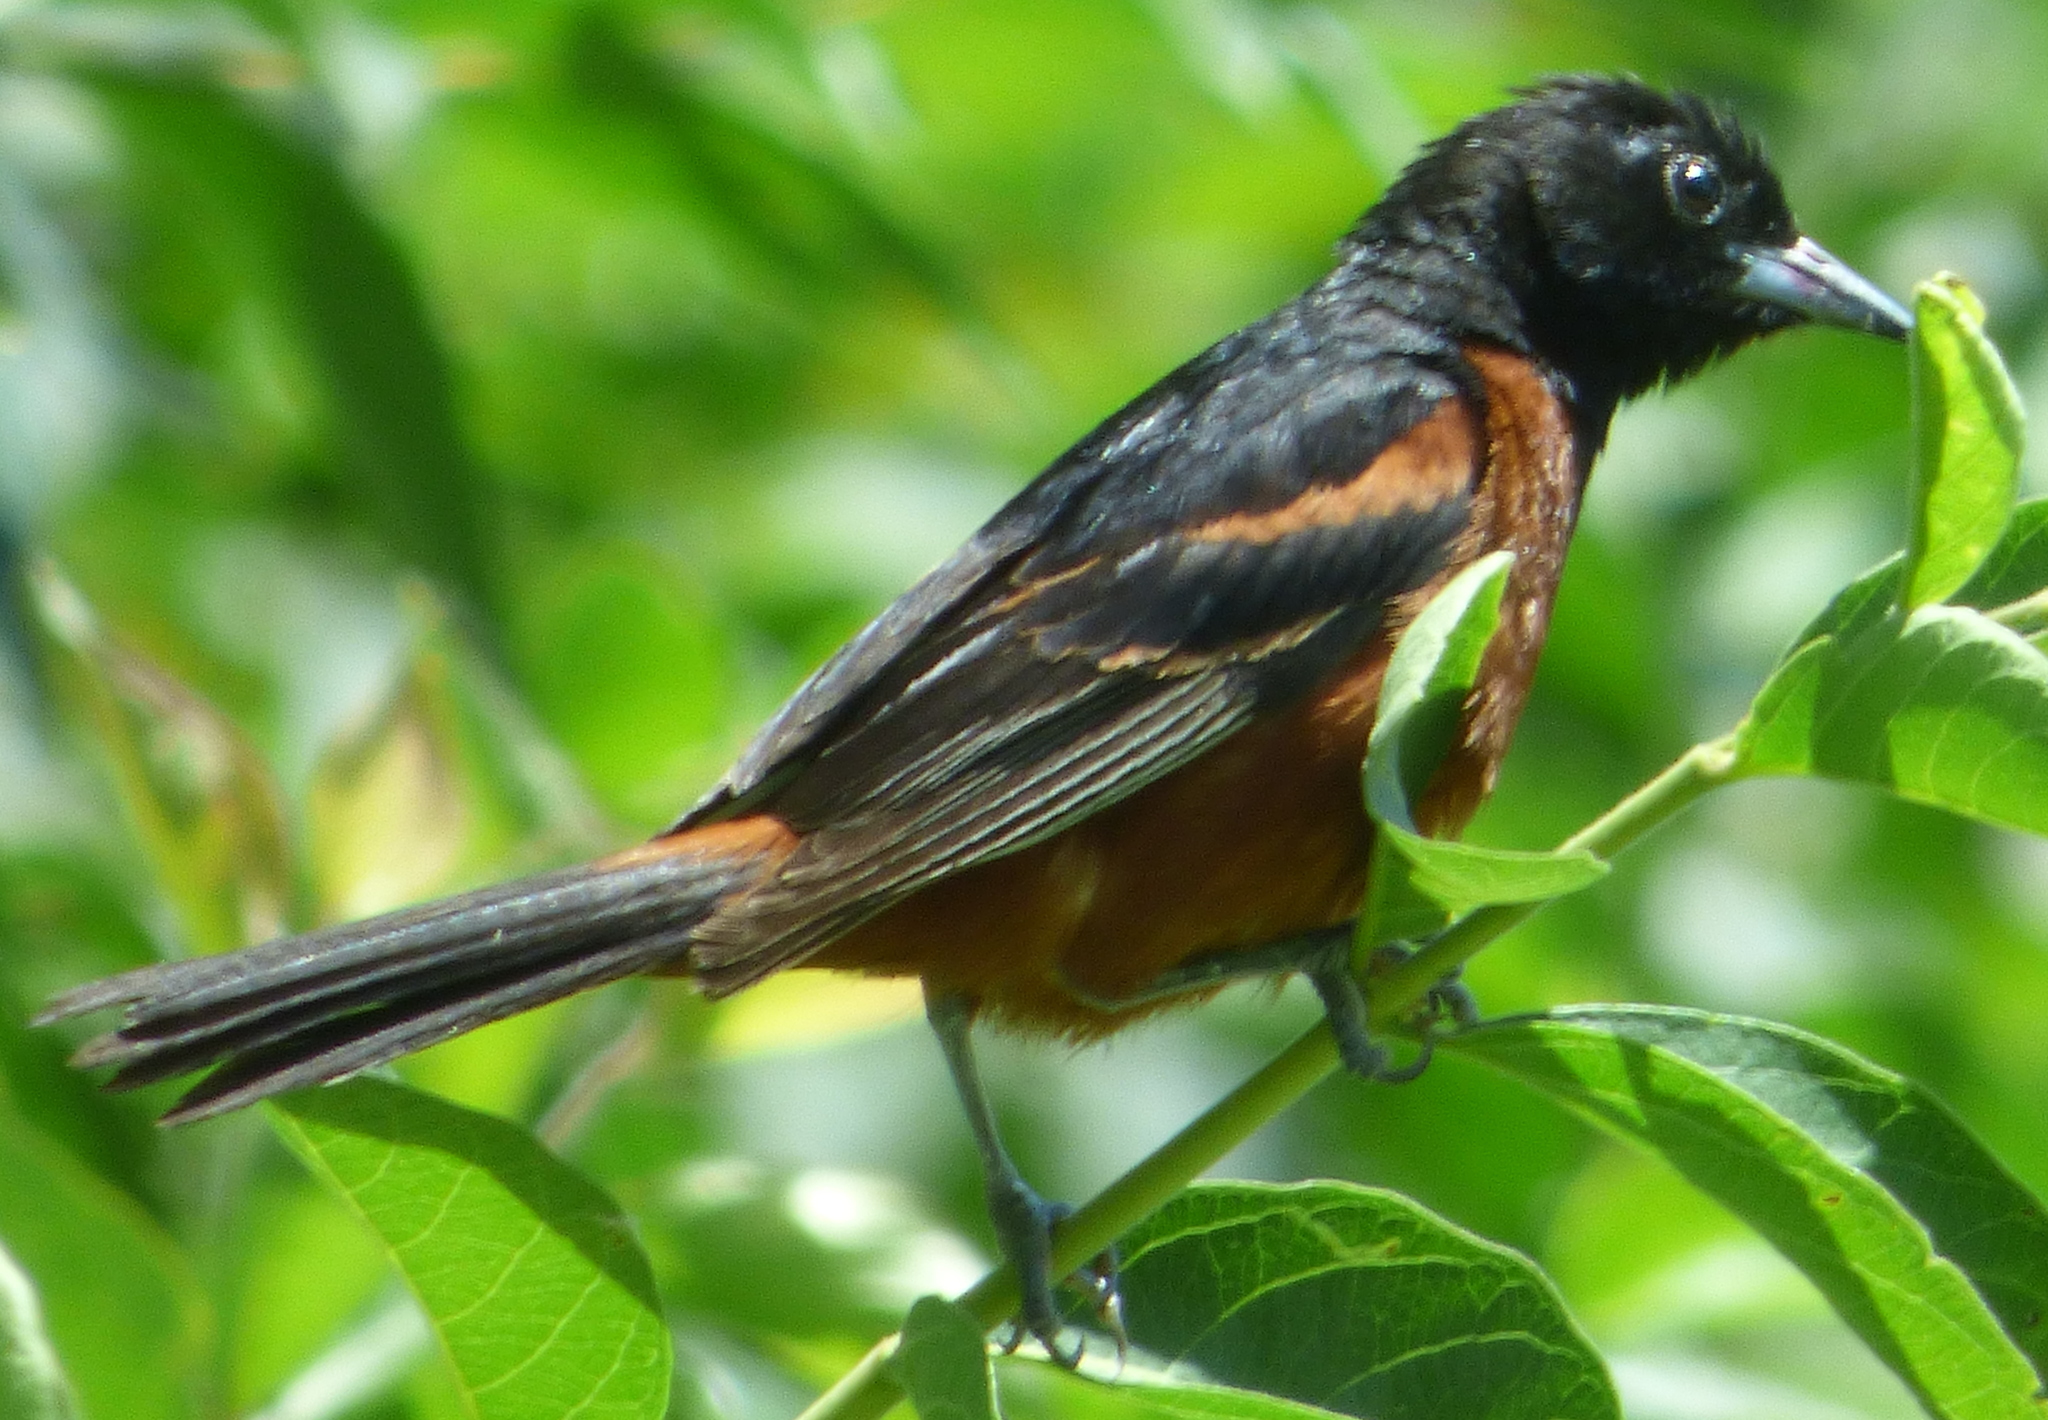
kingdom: Animalia
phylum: Chordata
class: Aves
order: Passeriformes
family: Icteridae
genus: Icterus
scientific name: Icterus spurius
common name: Orchard oriole
